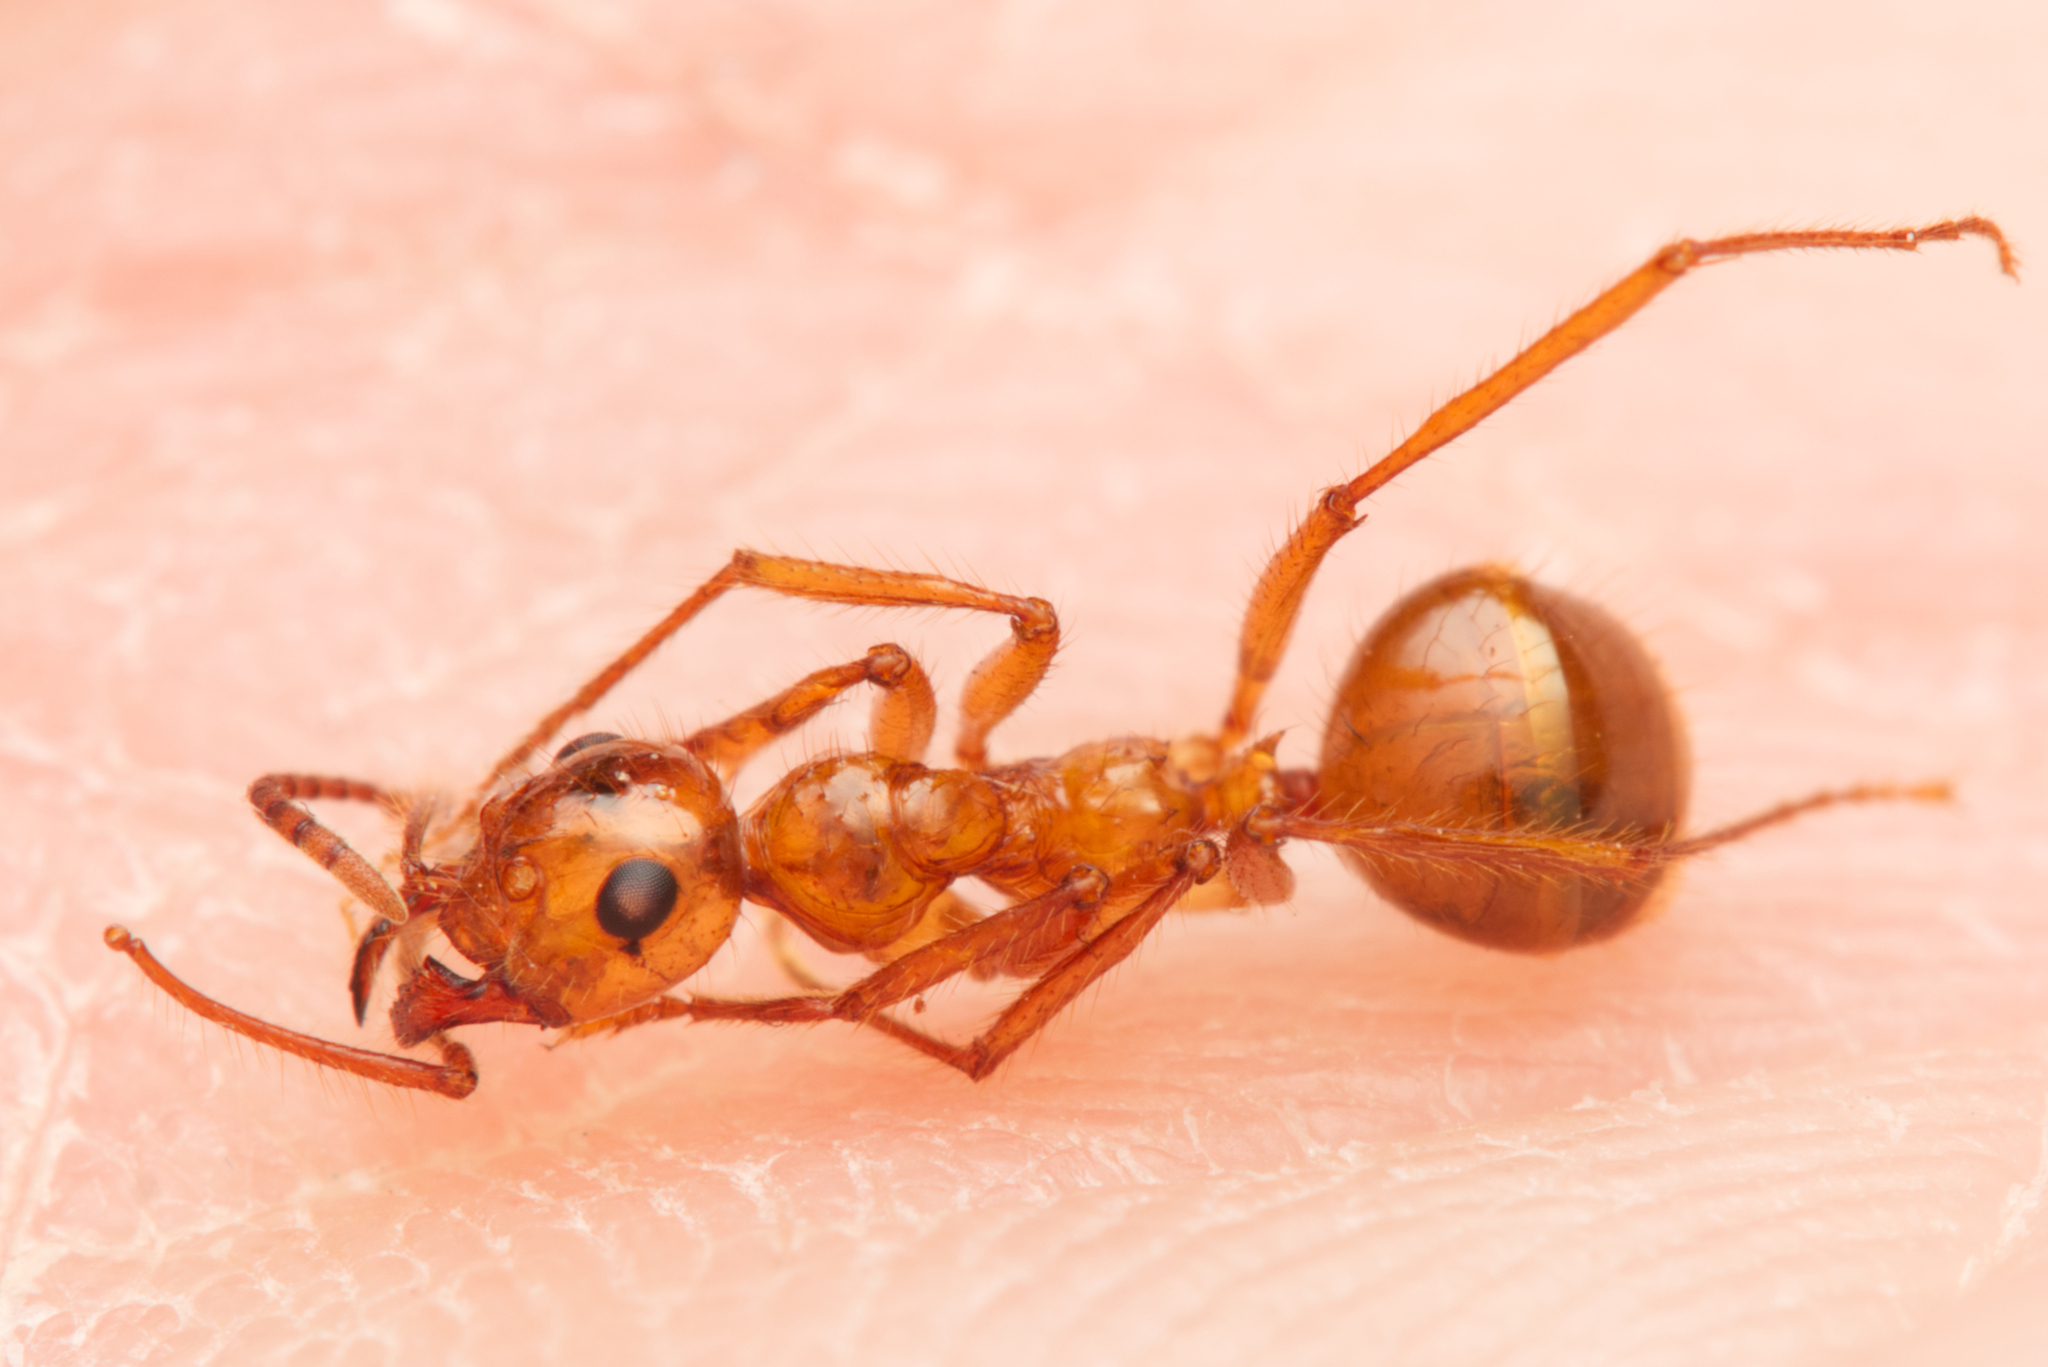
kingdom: Animalia
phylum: Arthropoda
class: Insecta
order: Hymenoptera
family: Formicidae
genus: Notoncus
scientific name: Notoncus spinisquamis
